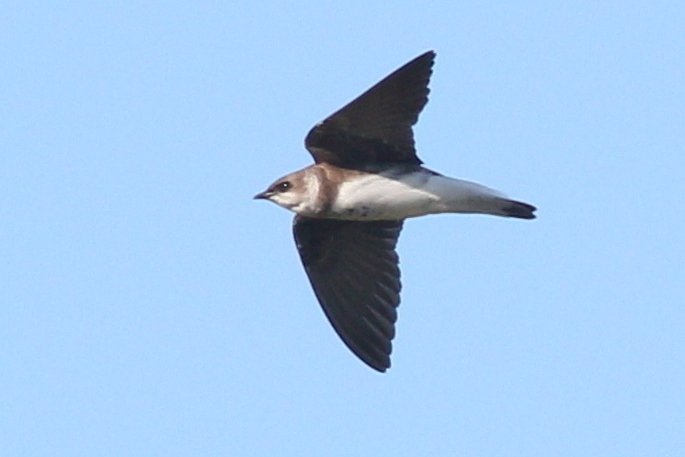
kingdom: Animalia
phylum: Chordata
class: Aves
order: Passeriformes
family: Hirundinidae
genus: Progne
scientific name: Progne tapera
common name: Brown-chested martin
